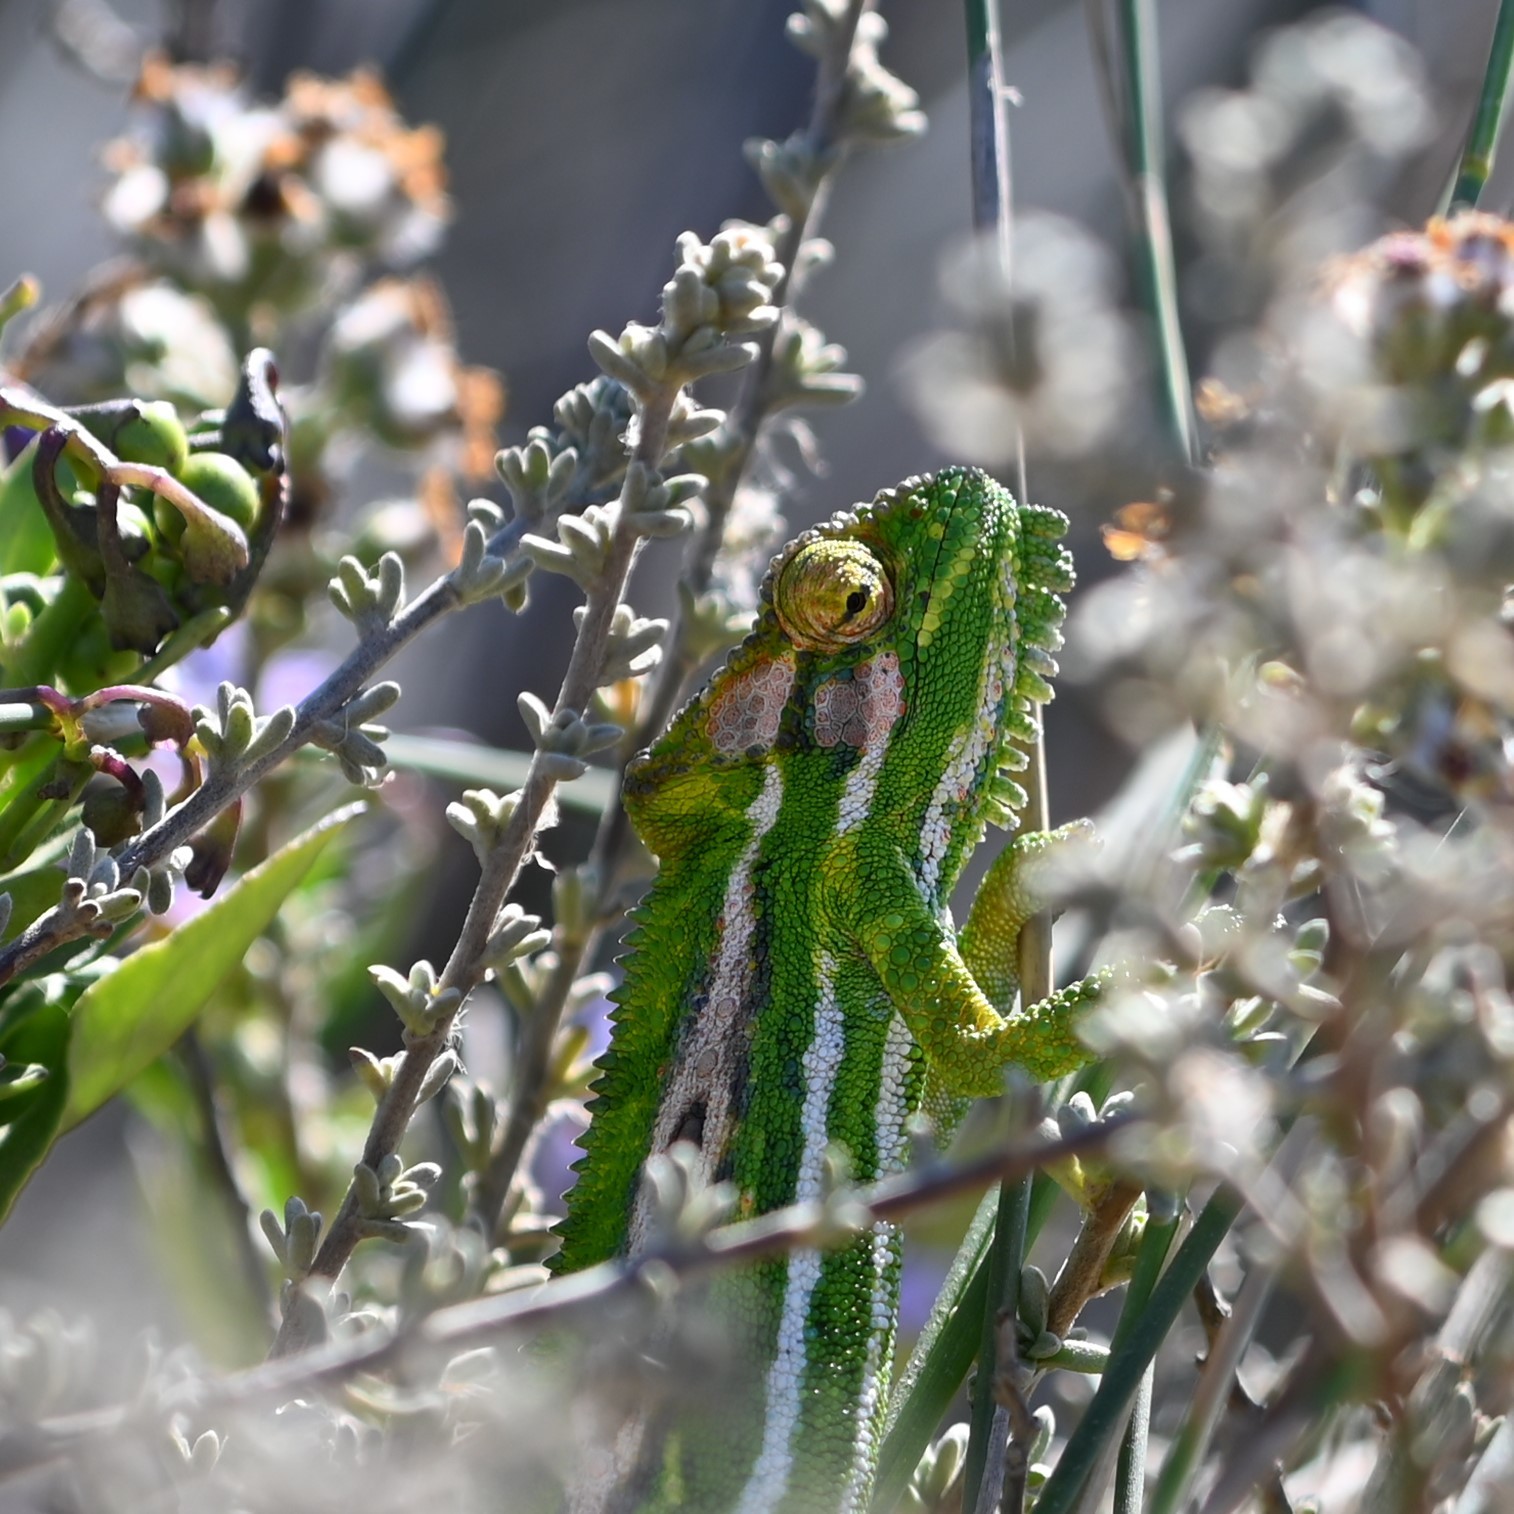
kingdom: Animalia
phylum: Chordata
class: Squamata
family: Chamaeleonidae
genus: Bradypodion
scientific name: Bradypodion pumilum
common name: Cape dwarf chameleon
